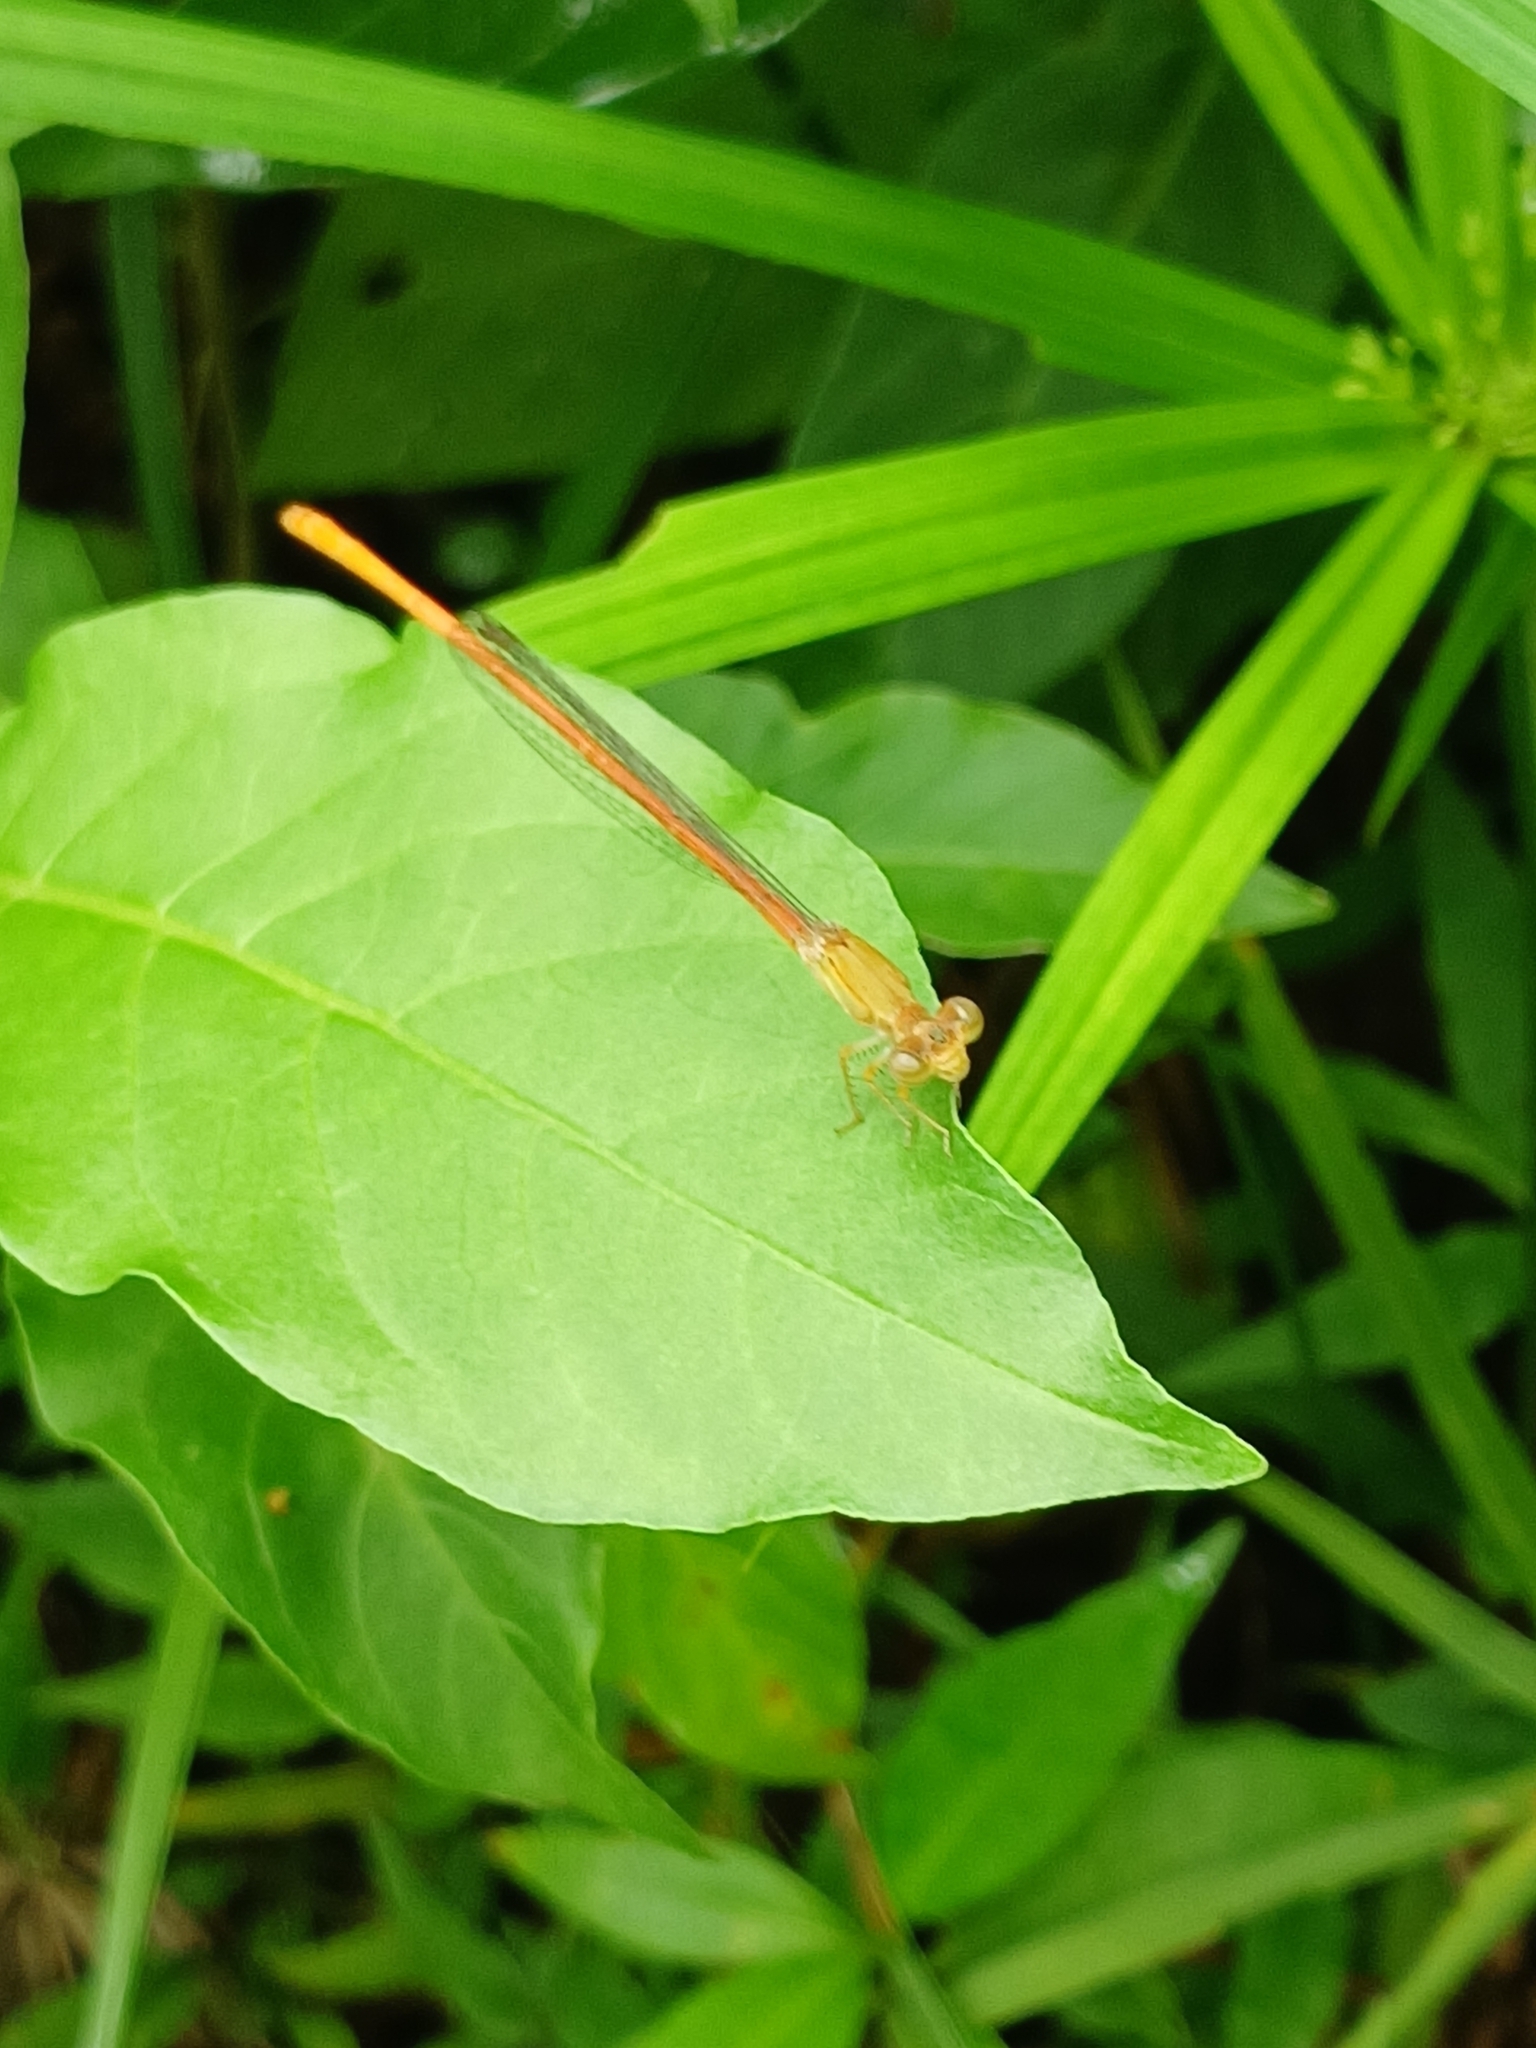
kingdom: Animalia
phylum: Arthropoda
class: Insecta
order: Odonata
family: Coenagrionidae
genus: Ceriagrion
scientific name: Ceriagrion glabrum
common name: Common pond damsel
